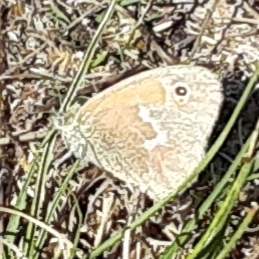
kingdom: Animalia
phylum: Arthropoda
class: Insecta
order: Lepidoptera
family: Nymphalidae
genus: Coenonympha
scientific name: Coenonympha california
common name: Common ringlet
